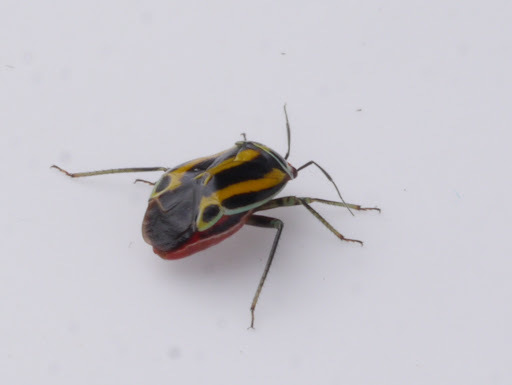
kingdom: Animalia
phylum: Arthropoda
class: Insecta
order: Hemiptera
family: Miridae
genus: Poecilocapsus
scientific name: Poecilocapsus lineatus
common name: Four-lined plant bug
